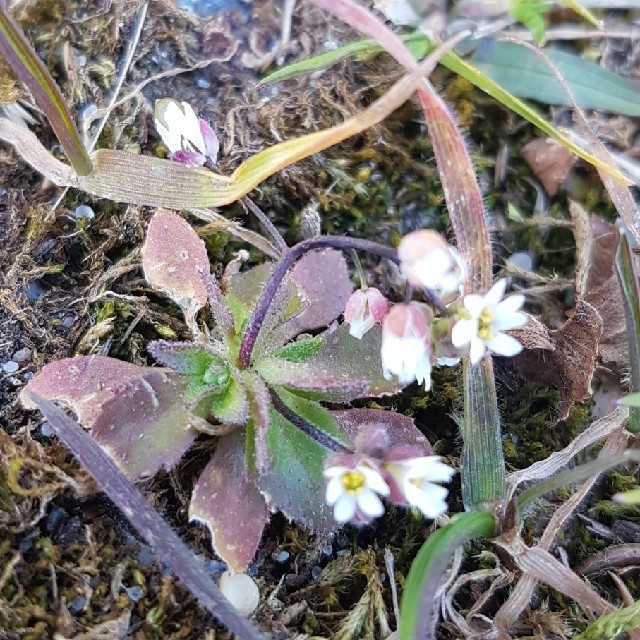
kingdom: Plantae
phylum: Tracheophyta
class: Magnoliopsida
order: Brassicales
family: Brassicaceae
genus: Draba
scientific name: Draba verna
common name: Spring draba
